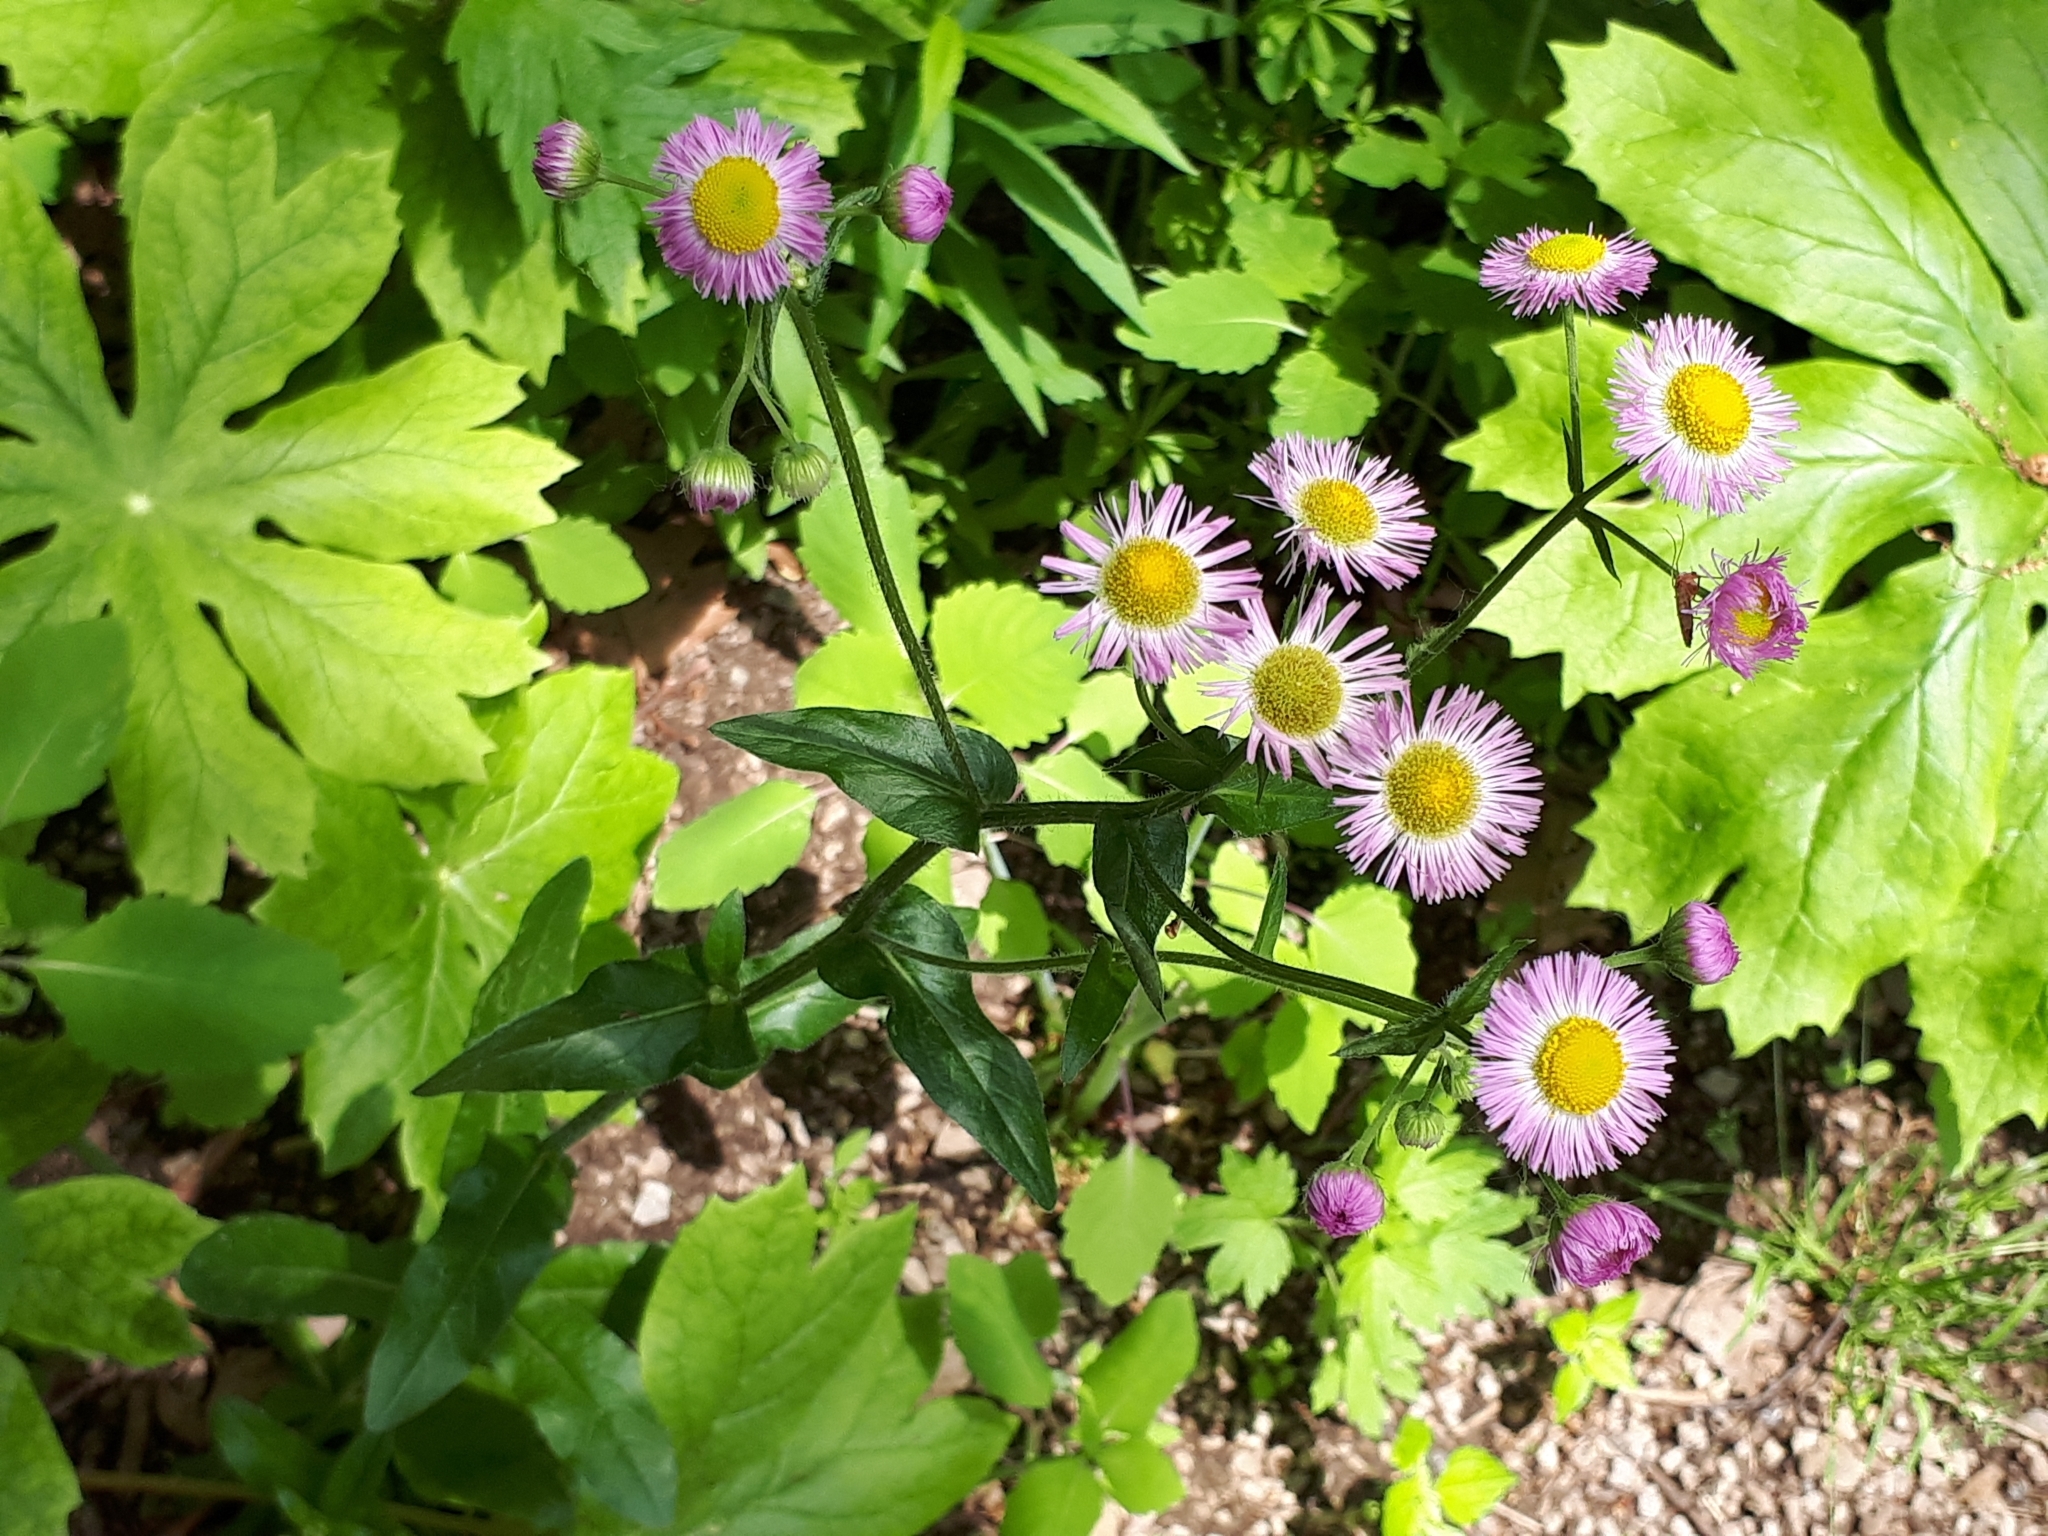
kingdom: Plantae
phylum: Tracheophyta
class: Magnoliopsida
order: Asterales
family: Asteraceae
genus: Erigeron
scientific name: Erigeron philadelphicus
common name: Robin's-plantain
